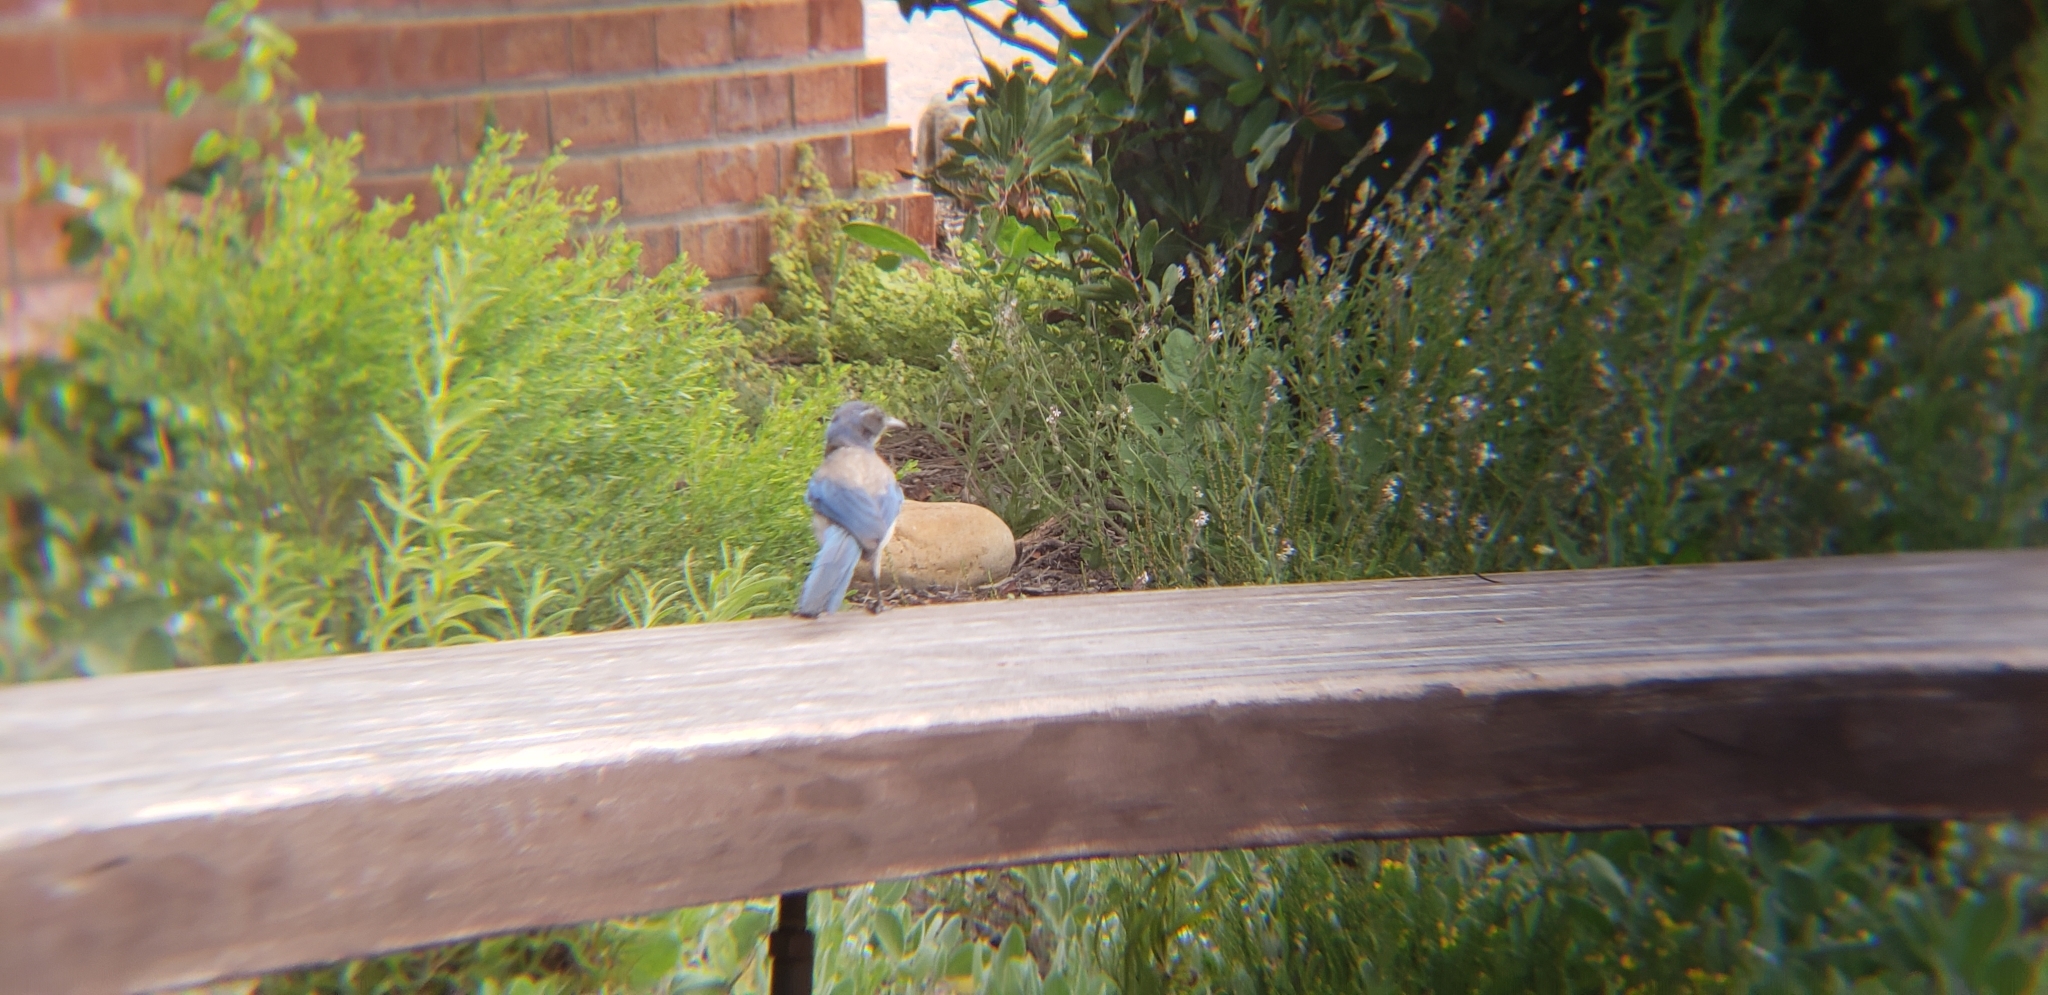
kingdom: Animalia
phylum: Chordata
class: Aves
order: Passeriformes
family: Corvidae
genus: Aphelocoma
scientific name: Aphelocoma californica
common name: California scrub-jay
